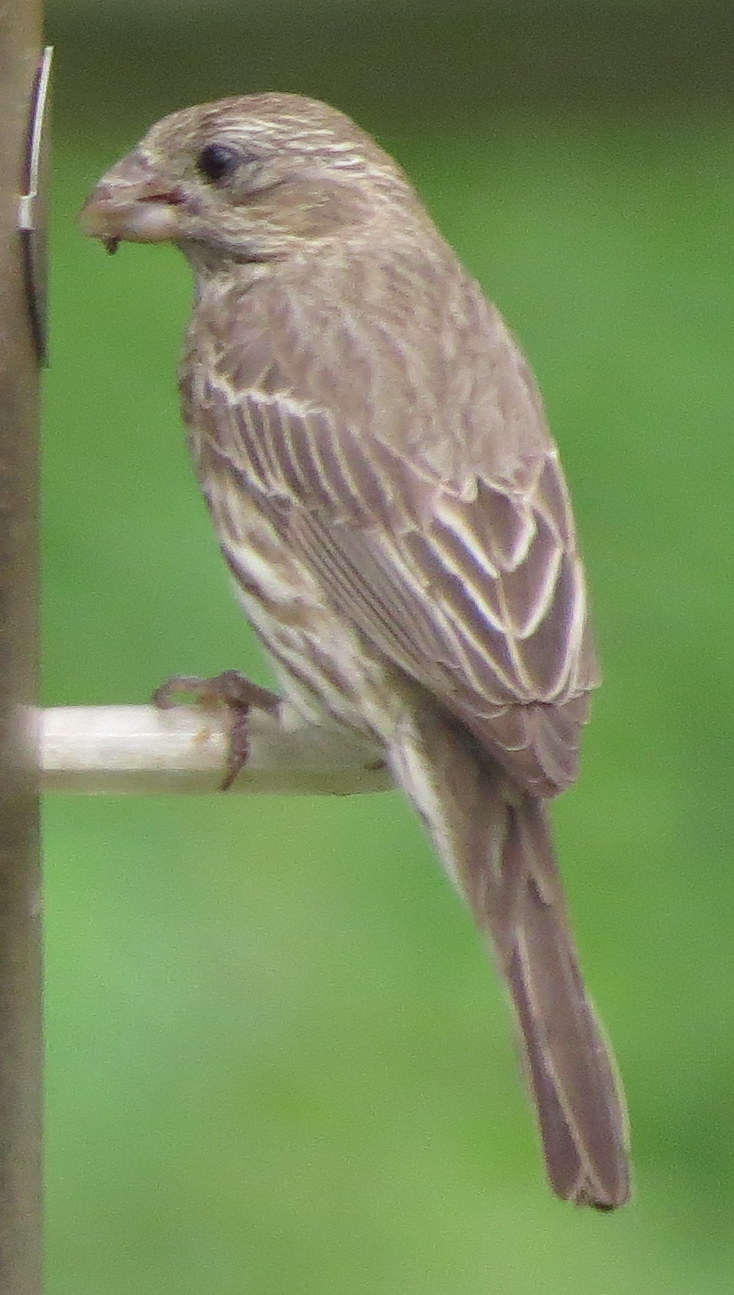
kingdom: Animalia
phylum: Chordata
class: Aves
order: Passeriformes
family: Fringillidae
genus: Haemorhous
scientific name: Haemorhous mexicanus
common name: House finch
